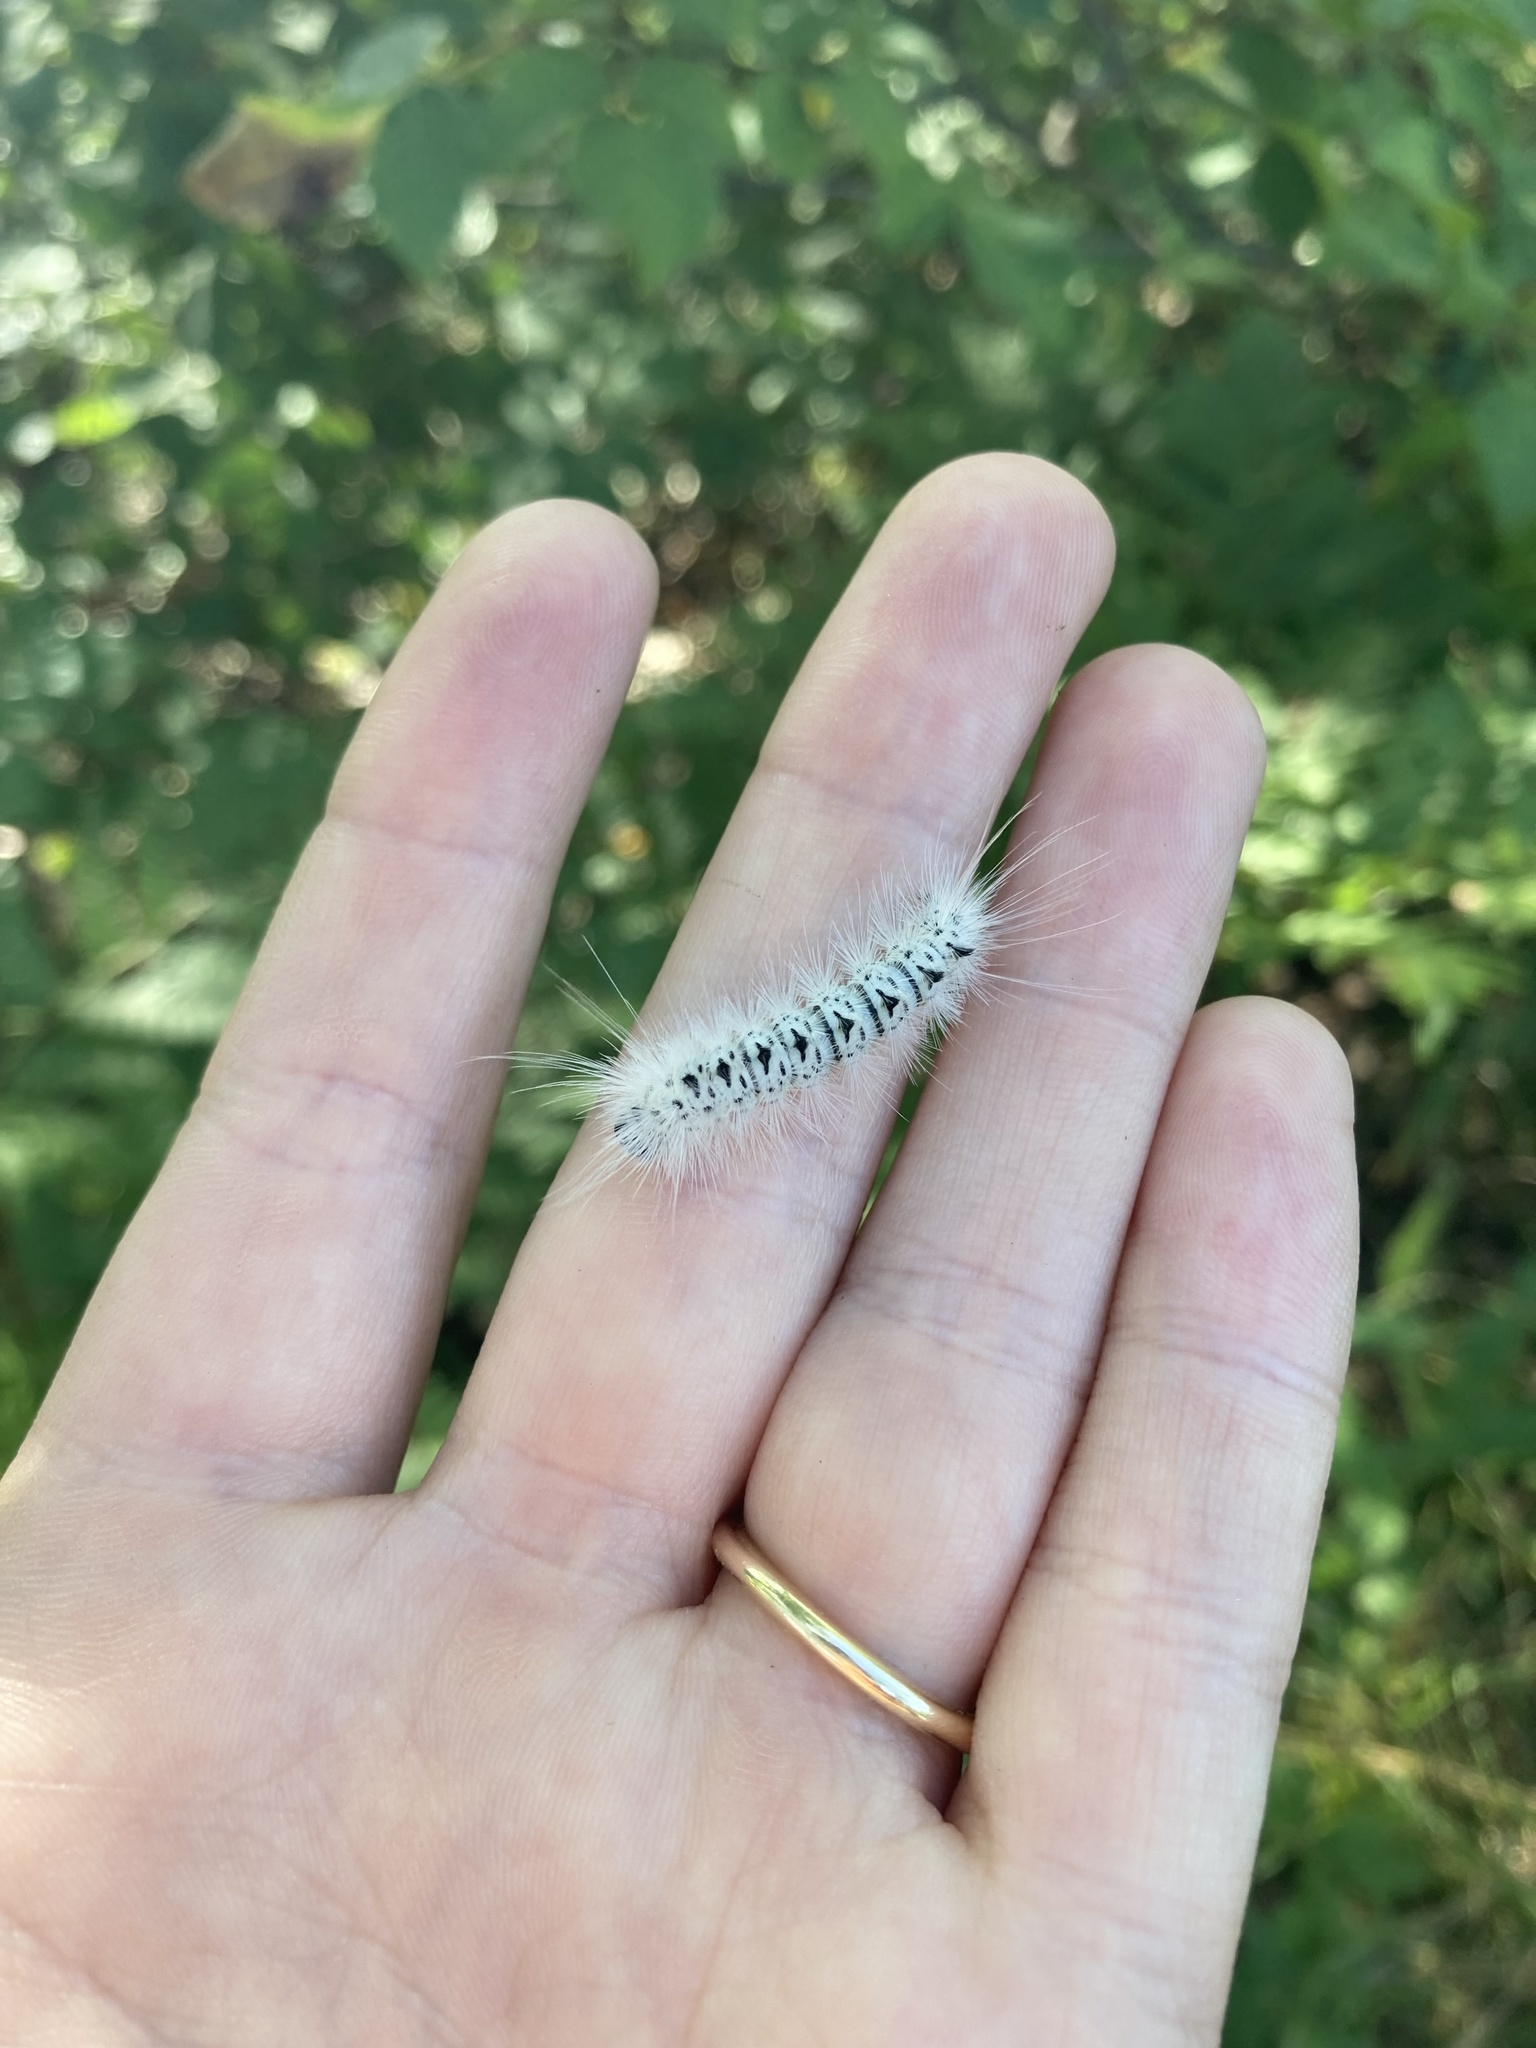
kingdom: Animalia
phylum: Arthropoda
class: Insecta
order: Lepidoptera
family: Erebidae
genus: Lophocampa
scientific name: Lophocampa caryae
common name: Hickory tussock moth
